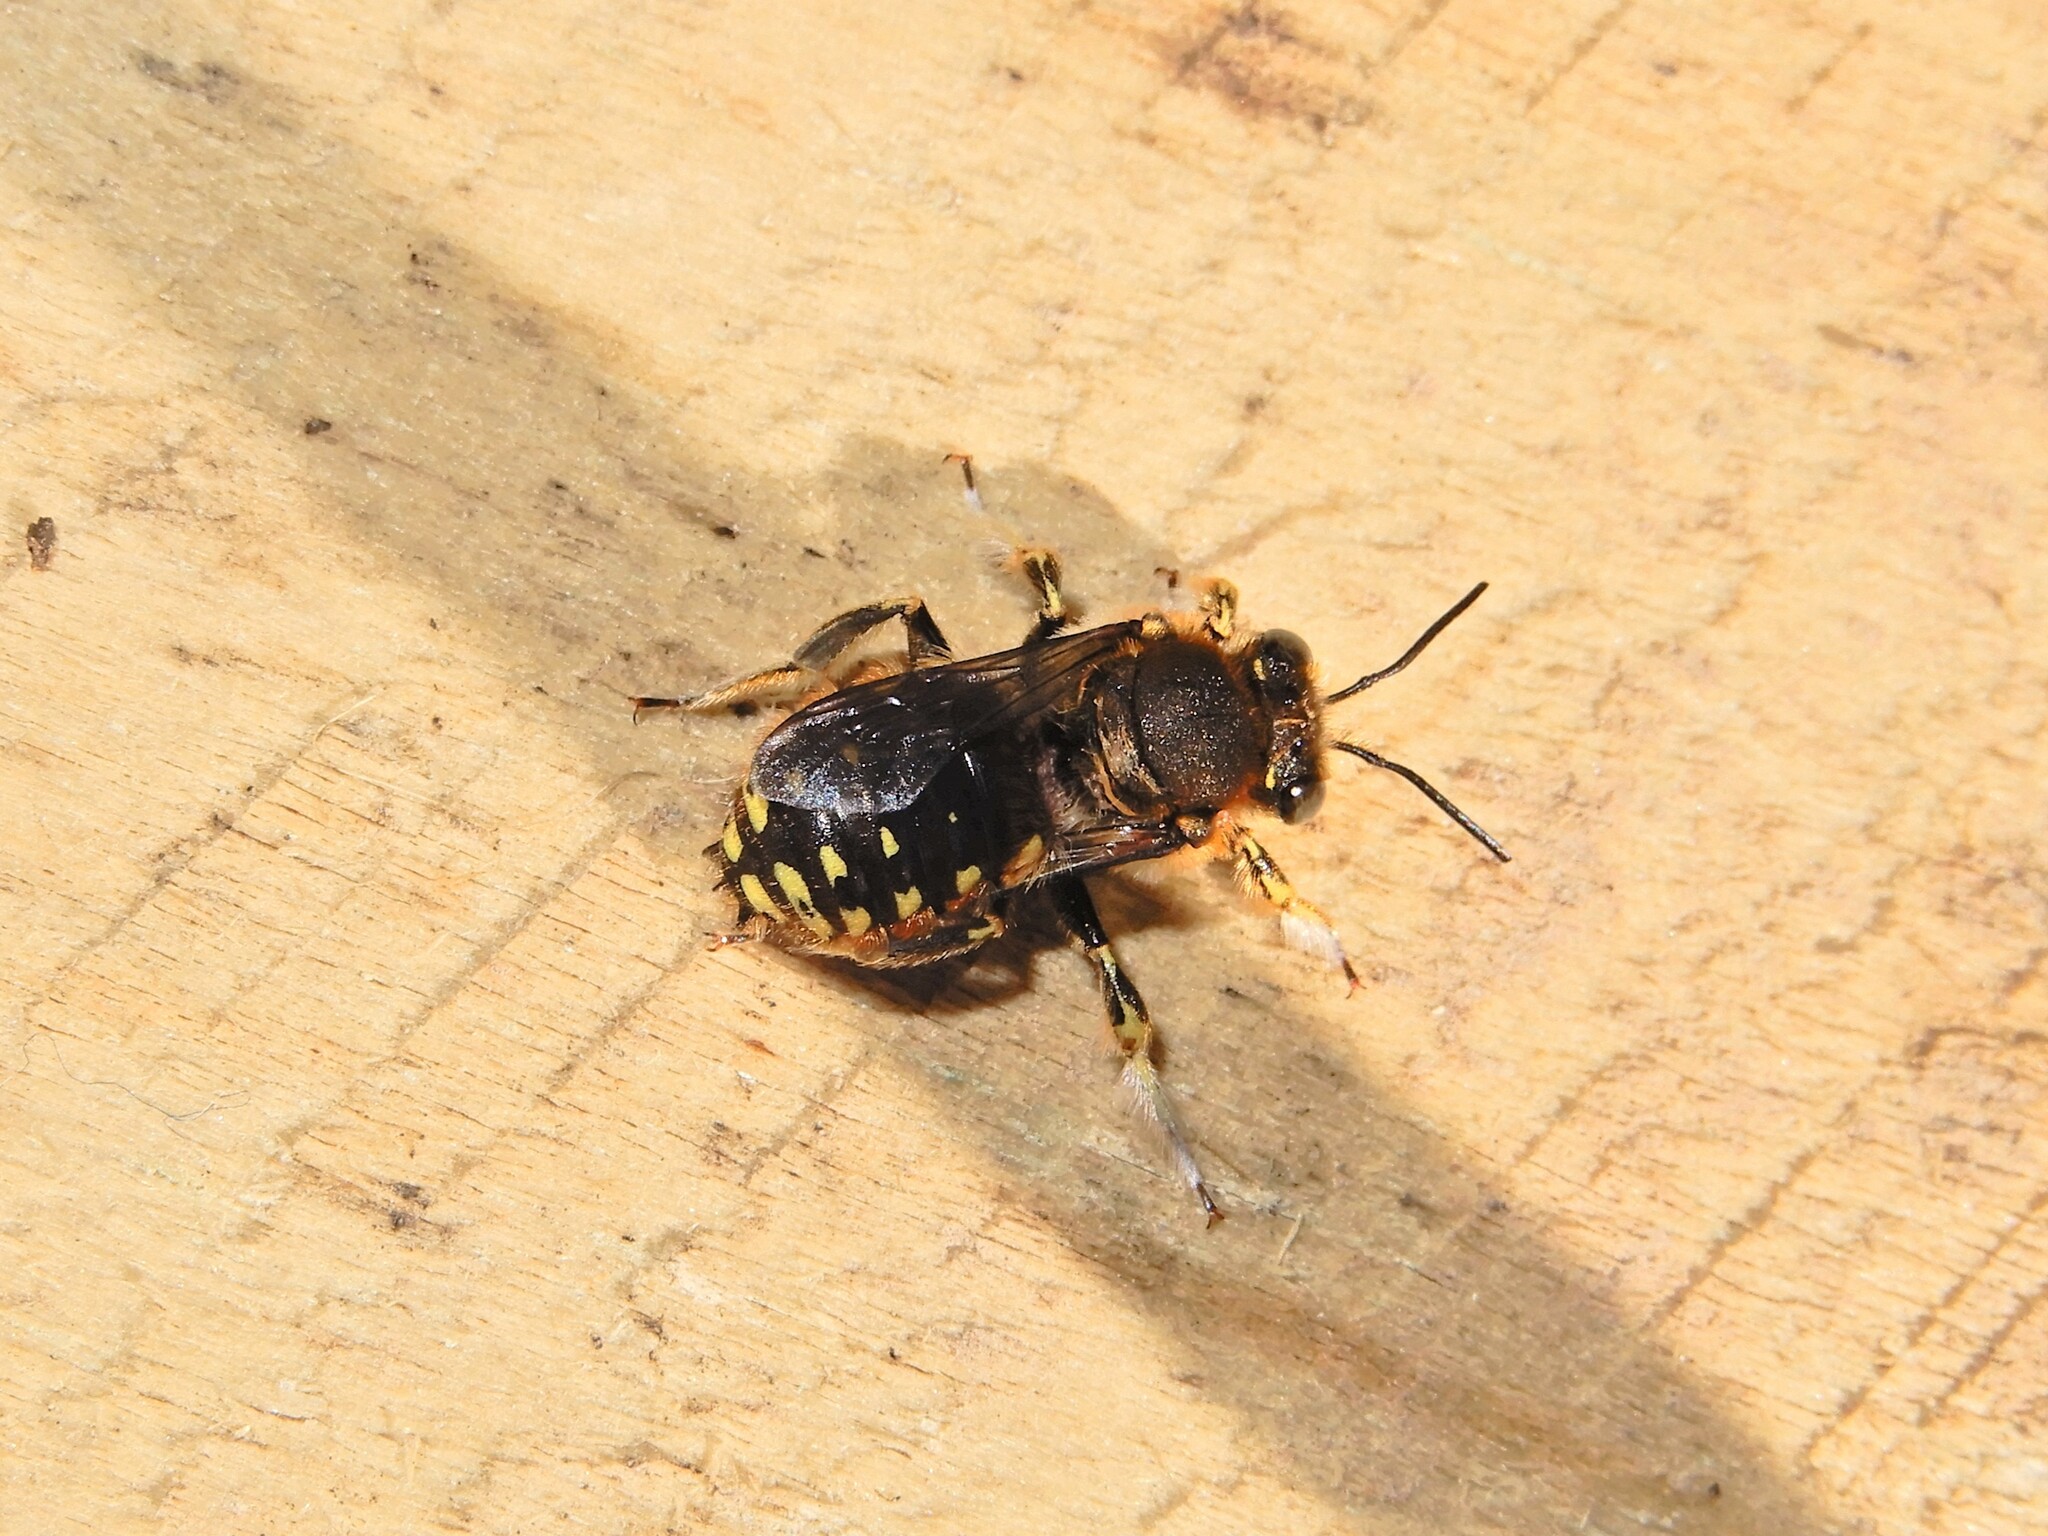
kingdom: Animalia
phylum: Arthropoda
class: Insecta
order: Hymenoptera
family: Megachilidae
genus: Anthidium
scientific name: Anthidium manicatum
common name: Wool carder bee
